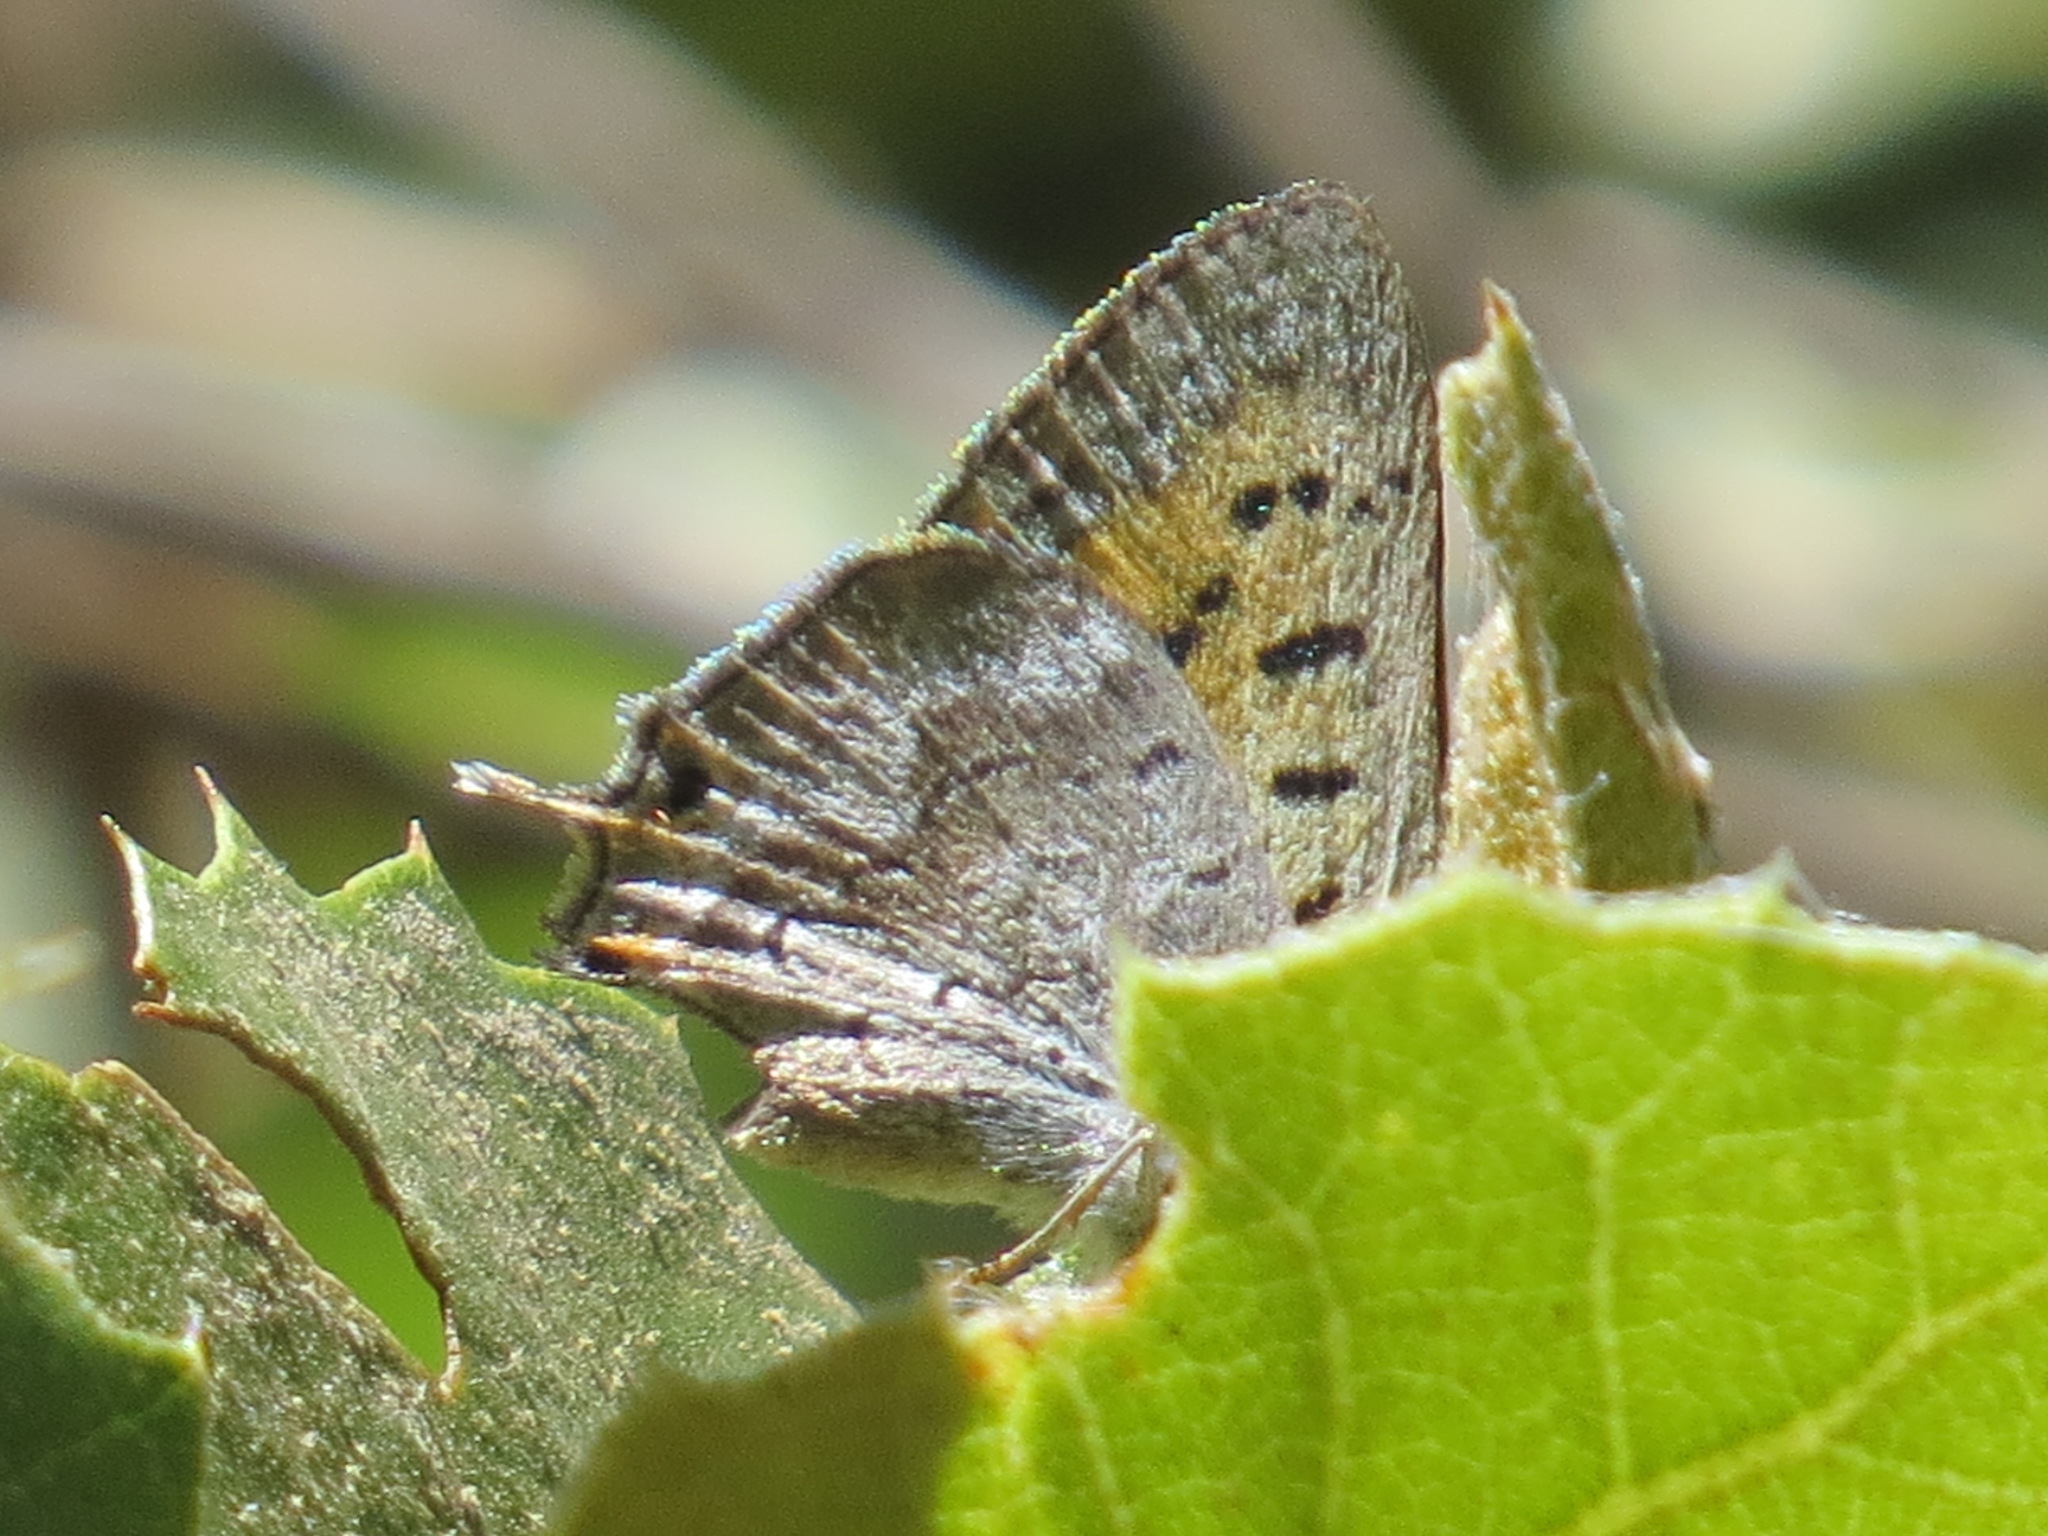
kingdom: Animalia
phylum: Arthropoda
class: Insecta
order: Lepidoptera
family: Lycaenidae
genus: Tharsalea
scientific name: Tharsalea arota
